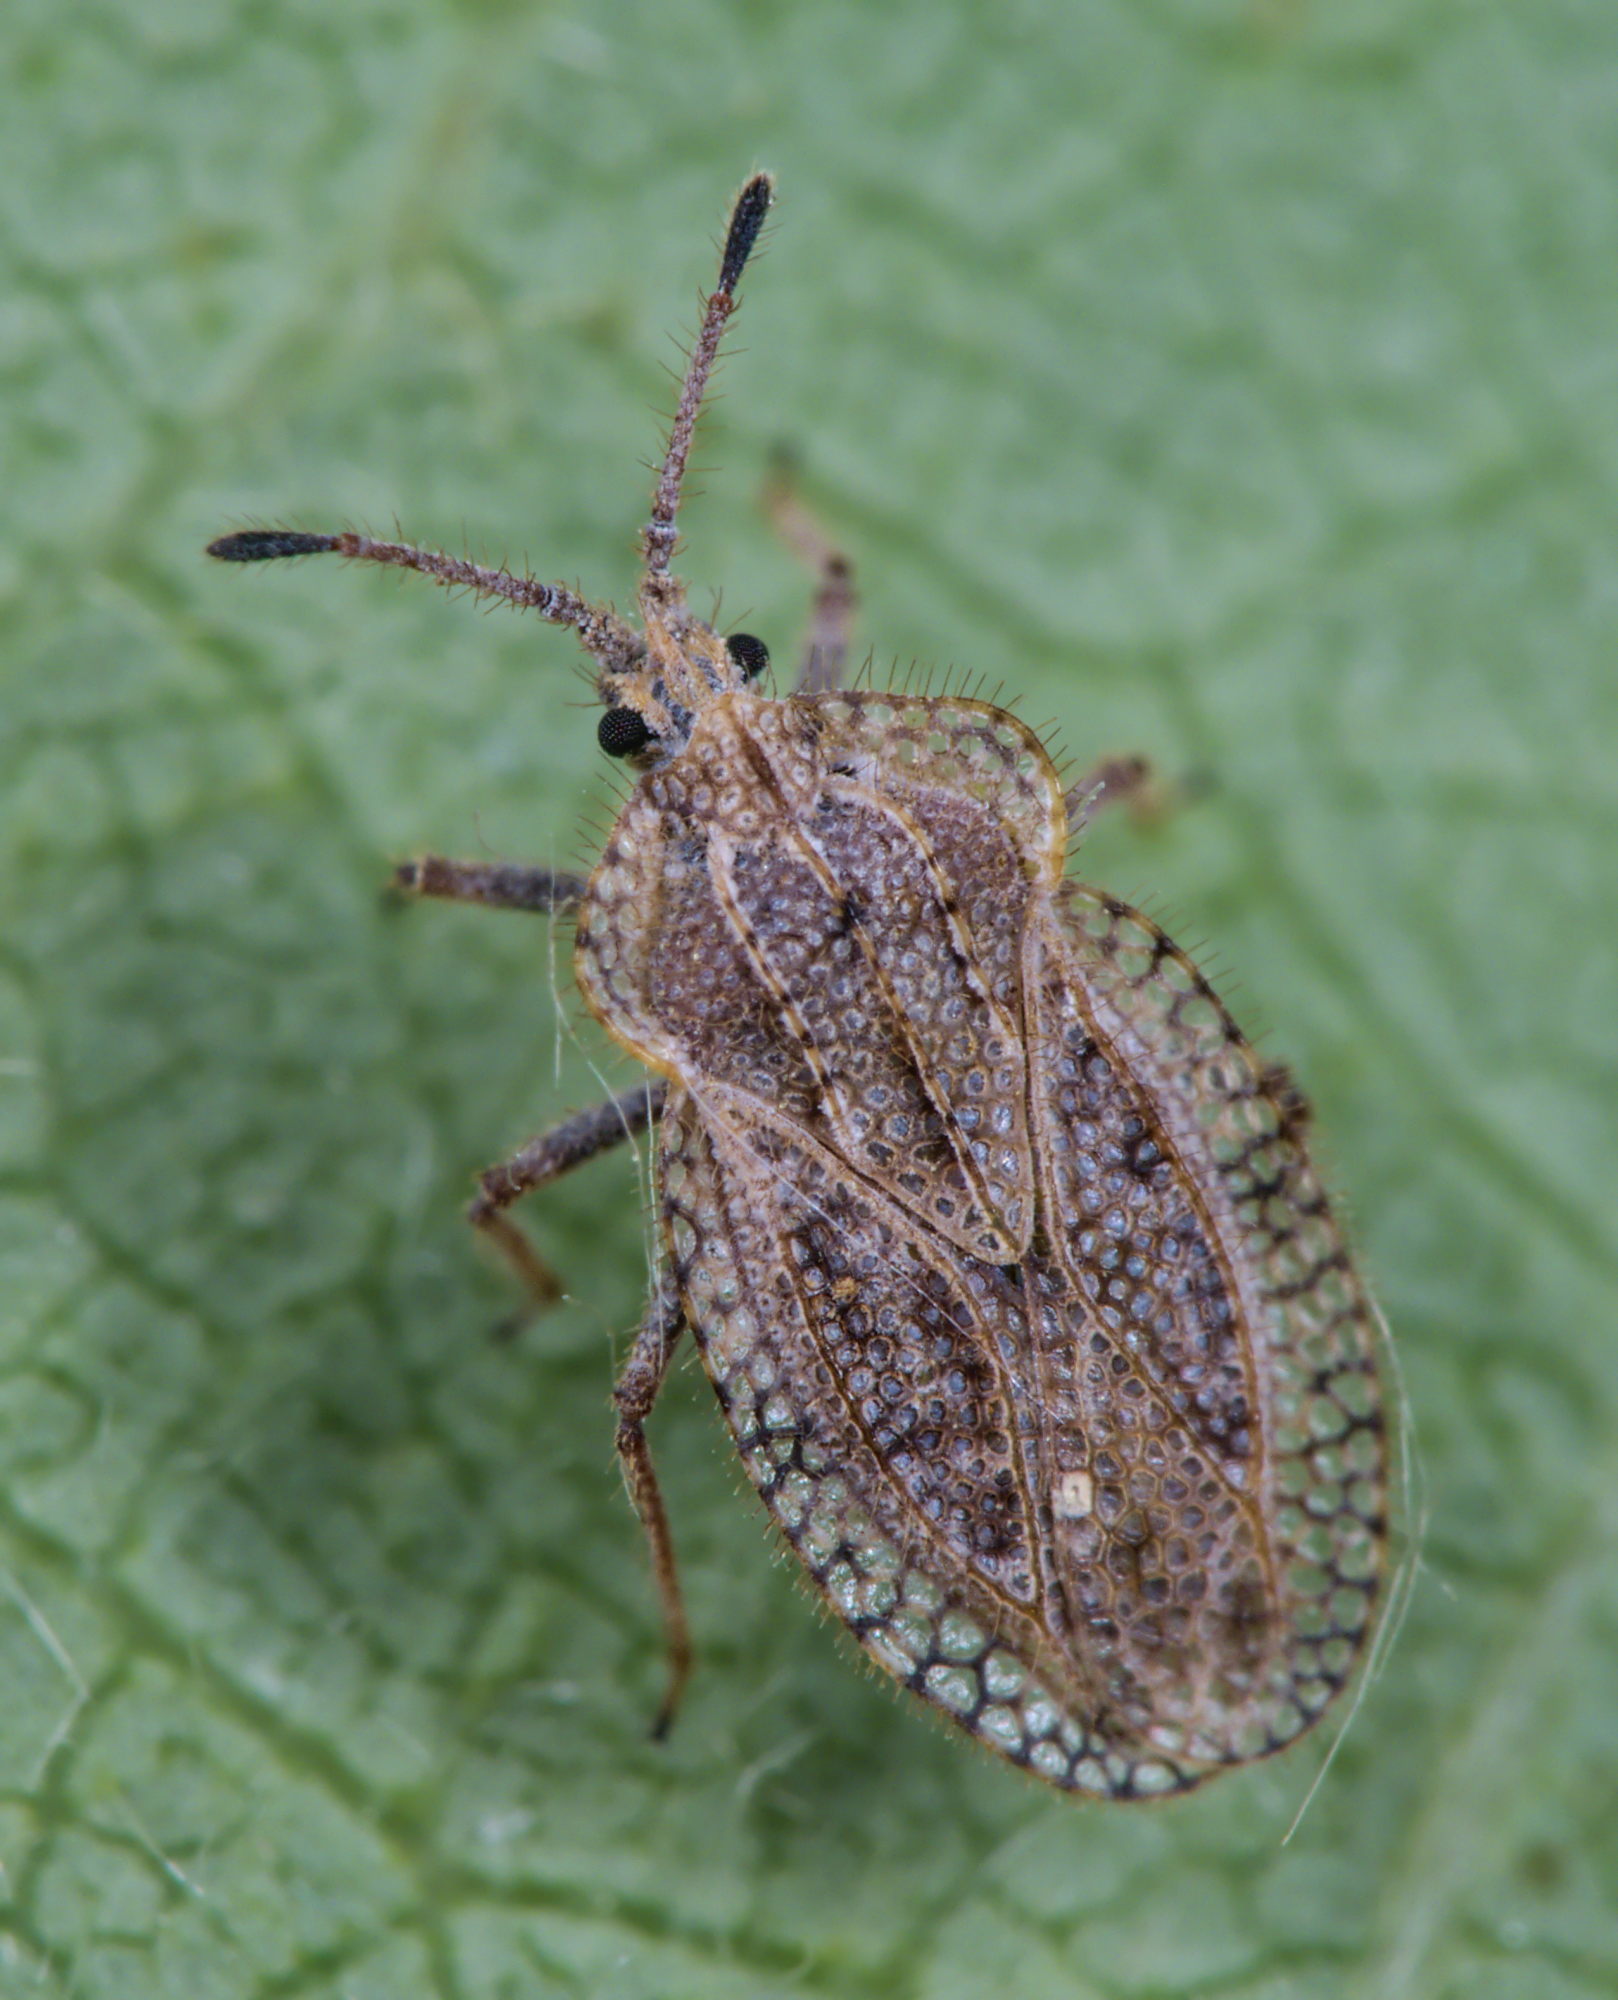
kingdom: Animalia
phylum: Arthropoda
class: Insecta
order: Hemiptera
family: Tingidae
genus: Tingis
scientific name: Tingis reticulata
